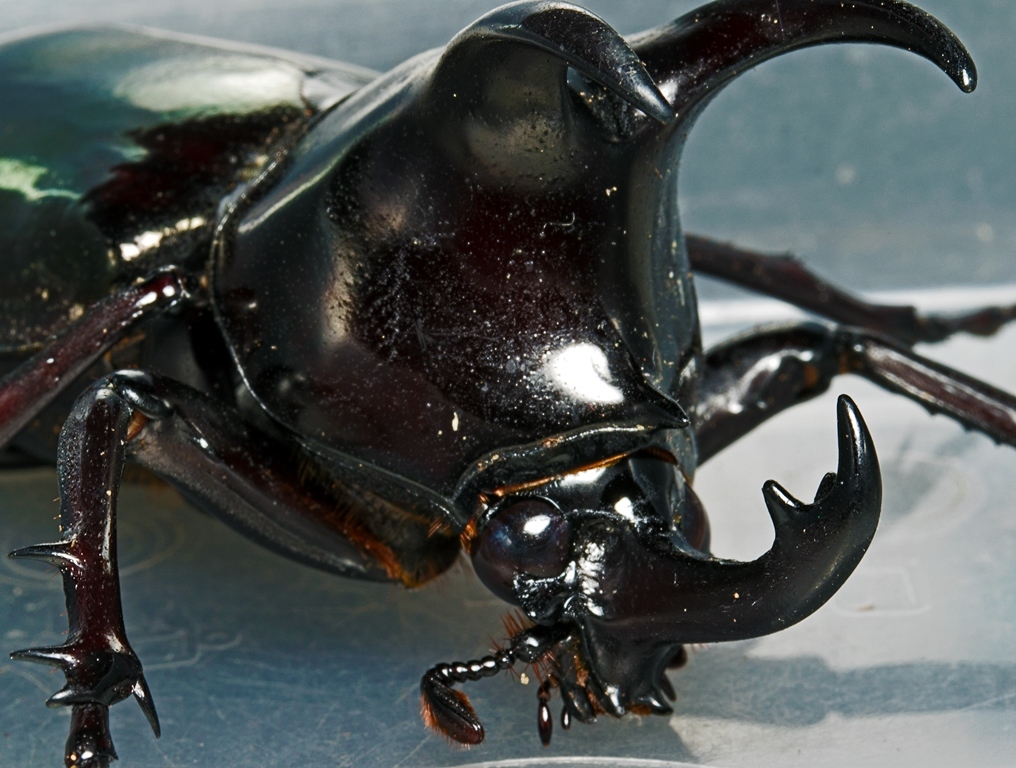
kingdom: Animalia
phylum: Arthropoda
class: Insecta
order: Coleoptera
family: Scarabaeidae
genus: Chalcosoma
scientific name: Chalcosoma moellenkampi
